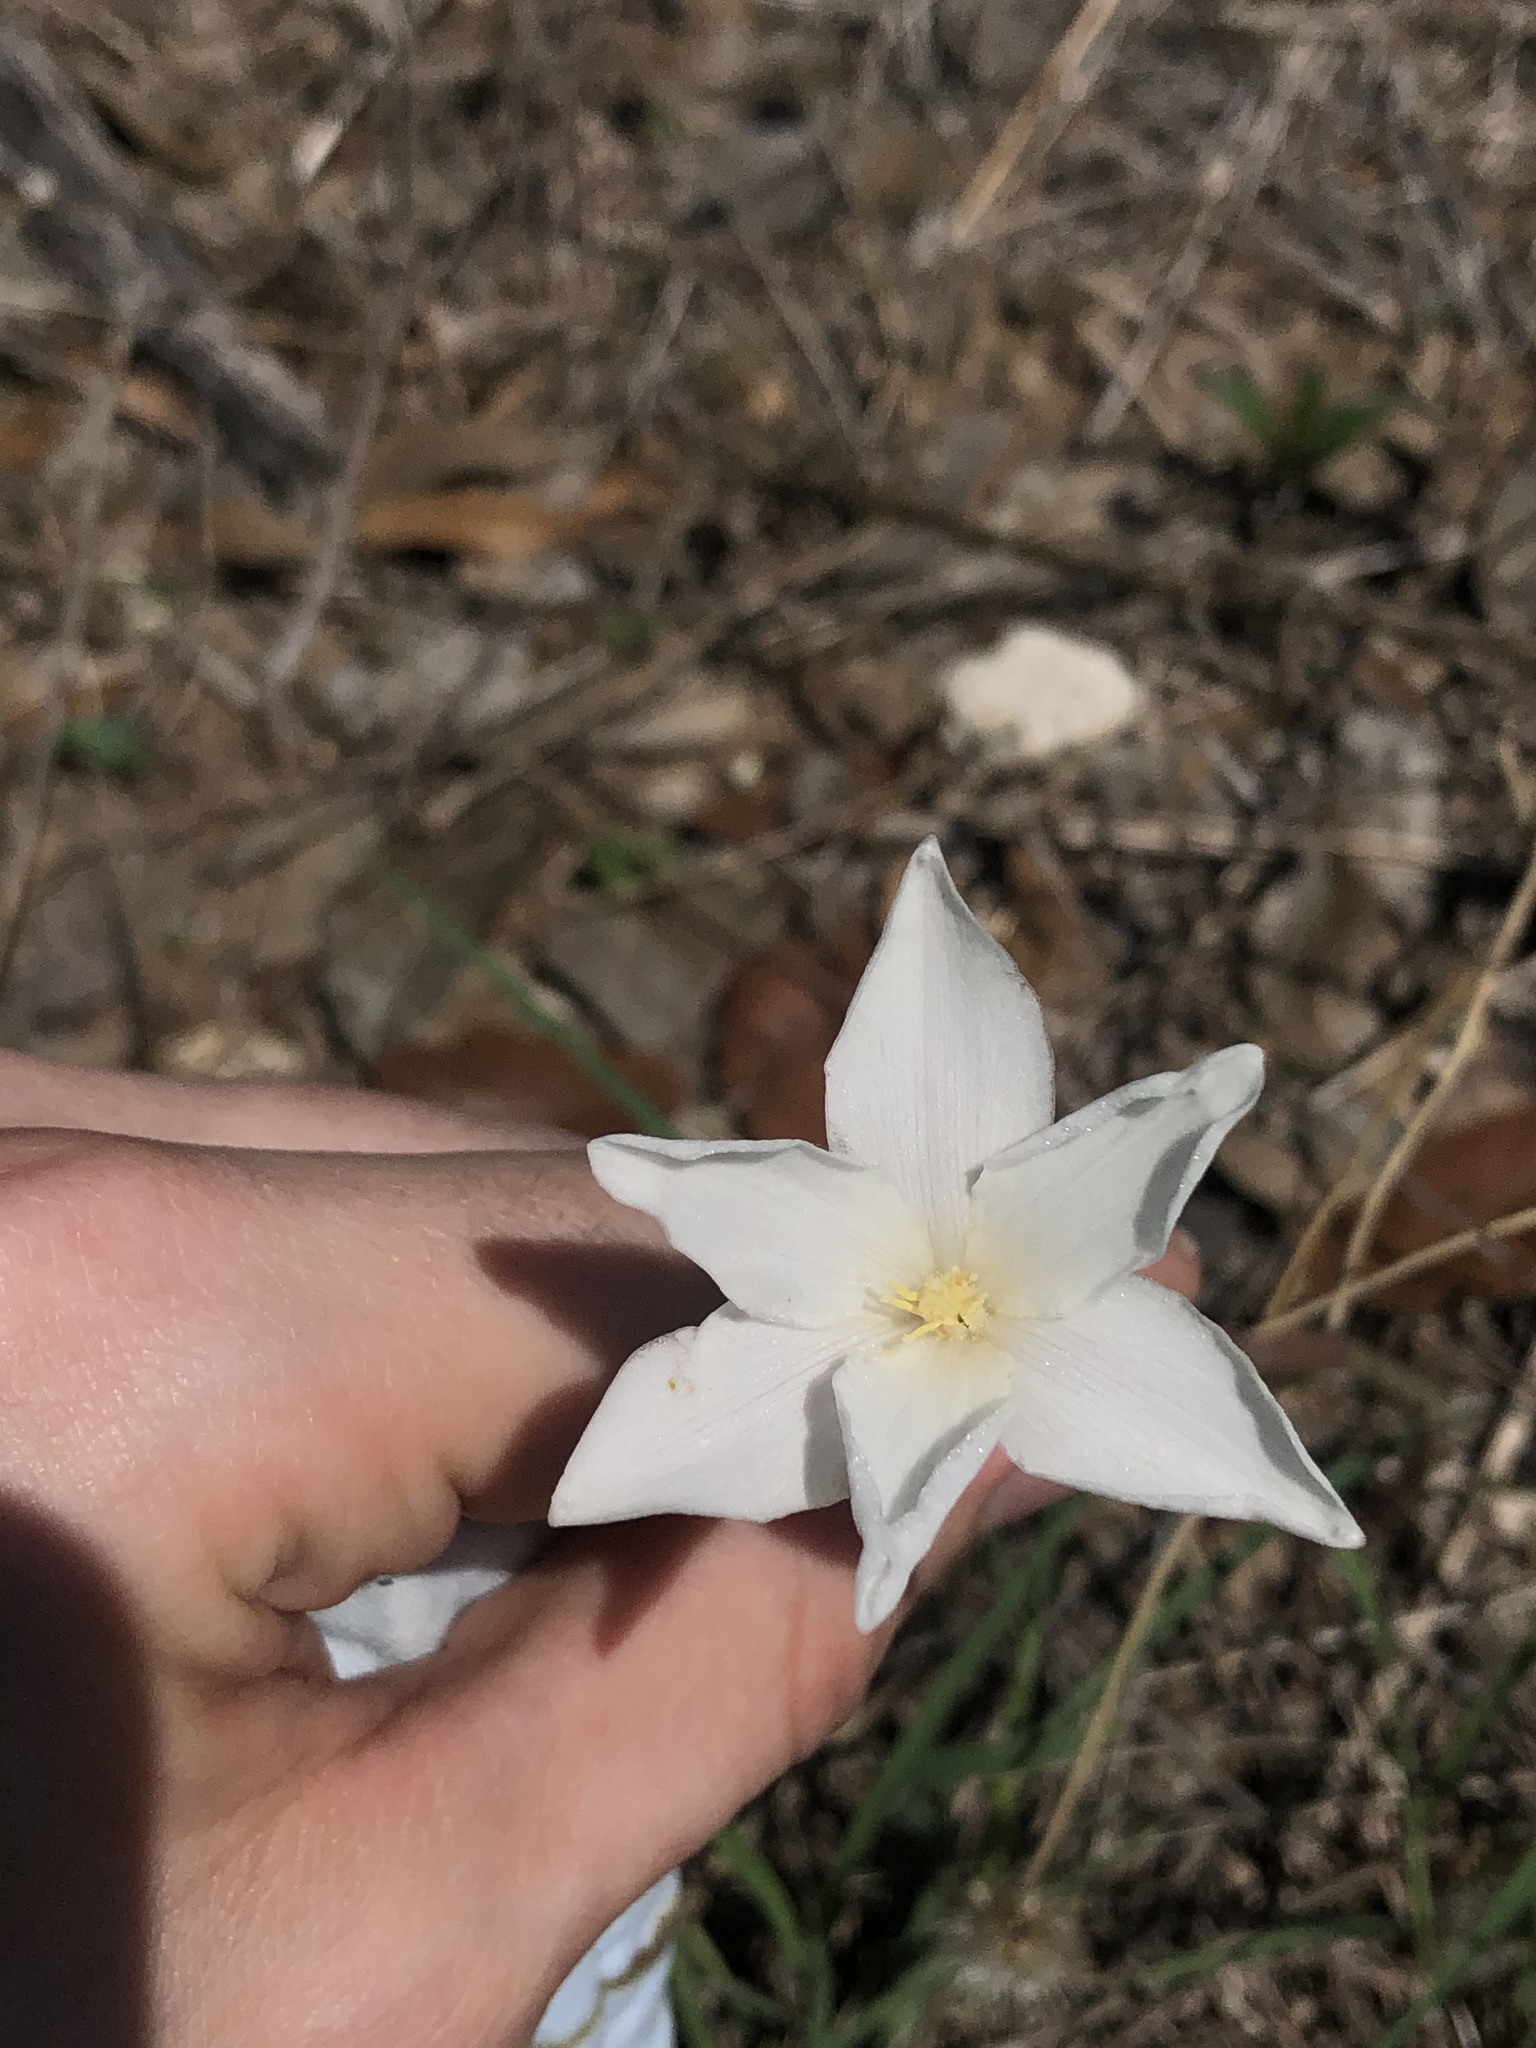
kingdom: Plantae
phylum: Tracheophyta
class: Liliopsida
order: Asparagales
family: Amaryllidaceae
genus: Zephyranthes
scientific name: Zephyranthes chlorosolen
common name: Evening rain-lily
